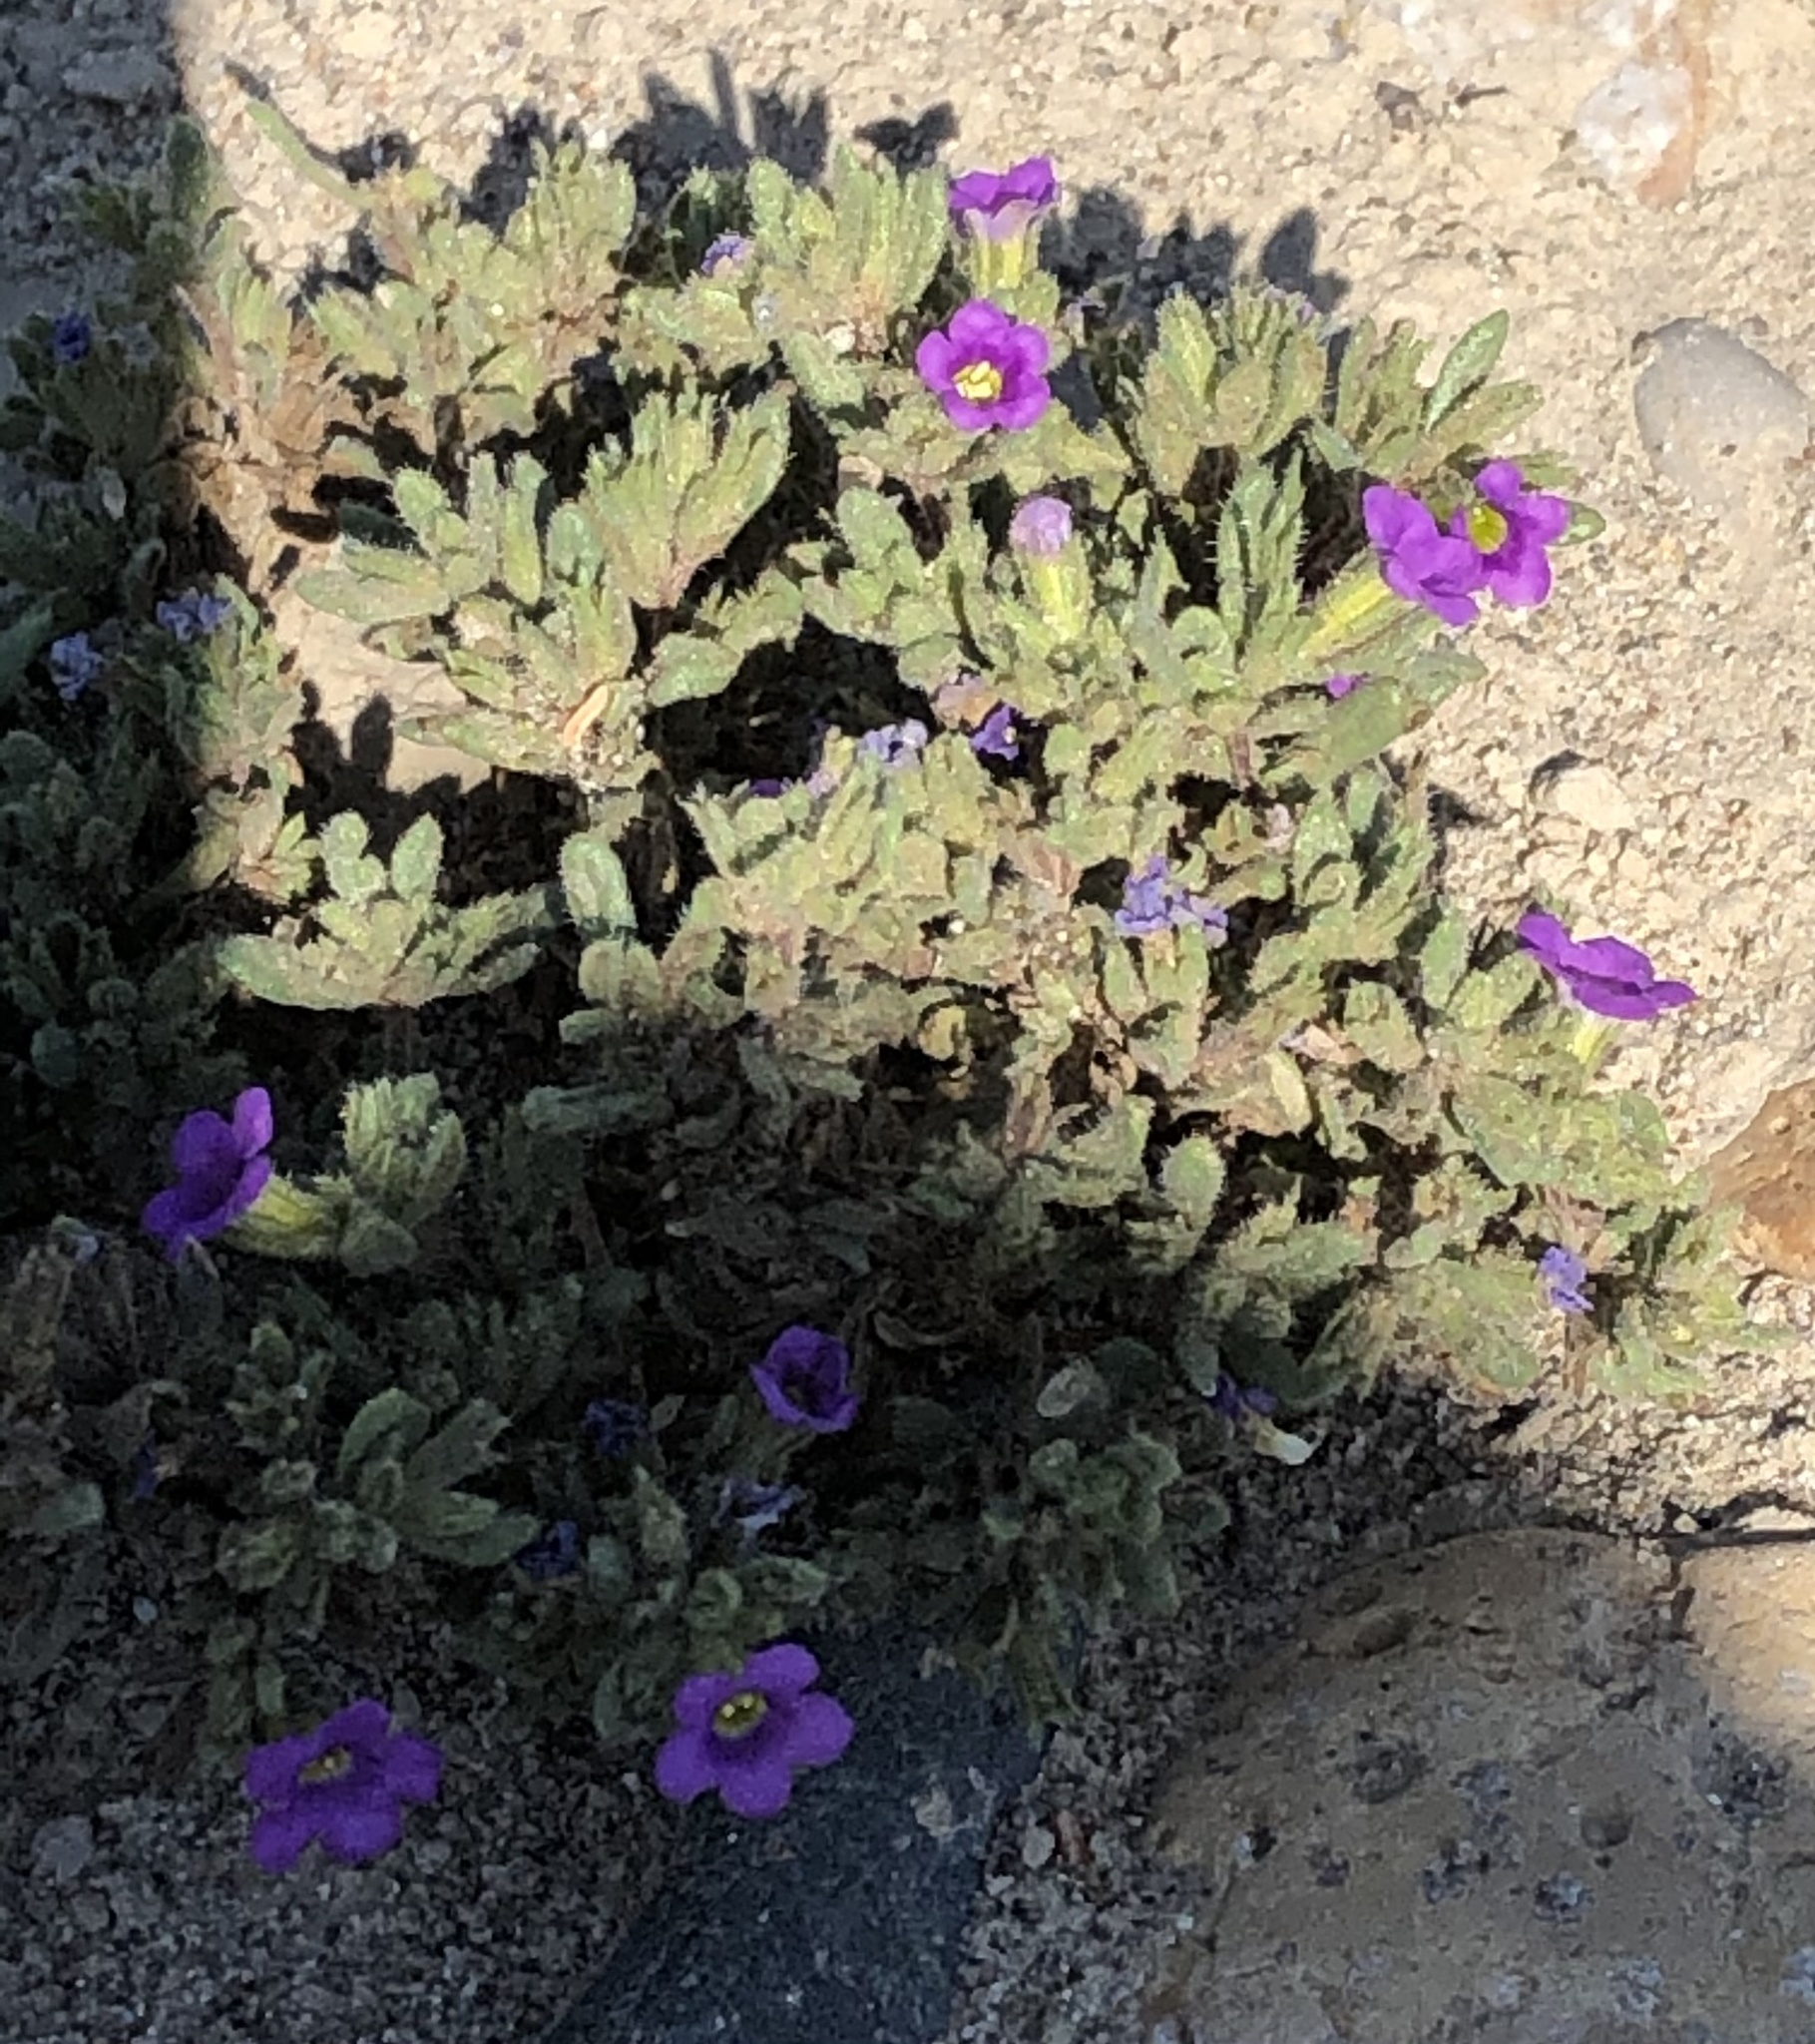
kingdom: Plantae
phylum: Tracheophyta
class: Magnoliopsida
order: Boraginales
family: Namaceae
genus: Nama
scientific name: Nama hispida
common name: Bristly nama
